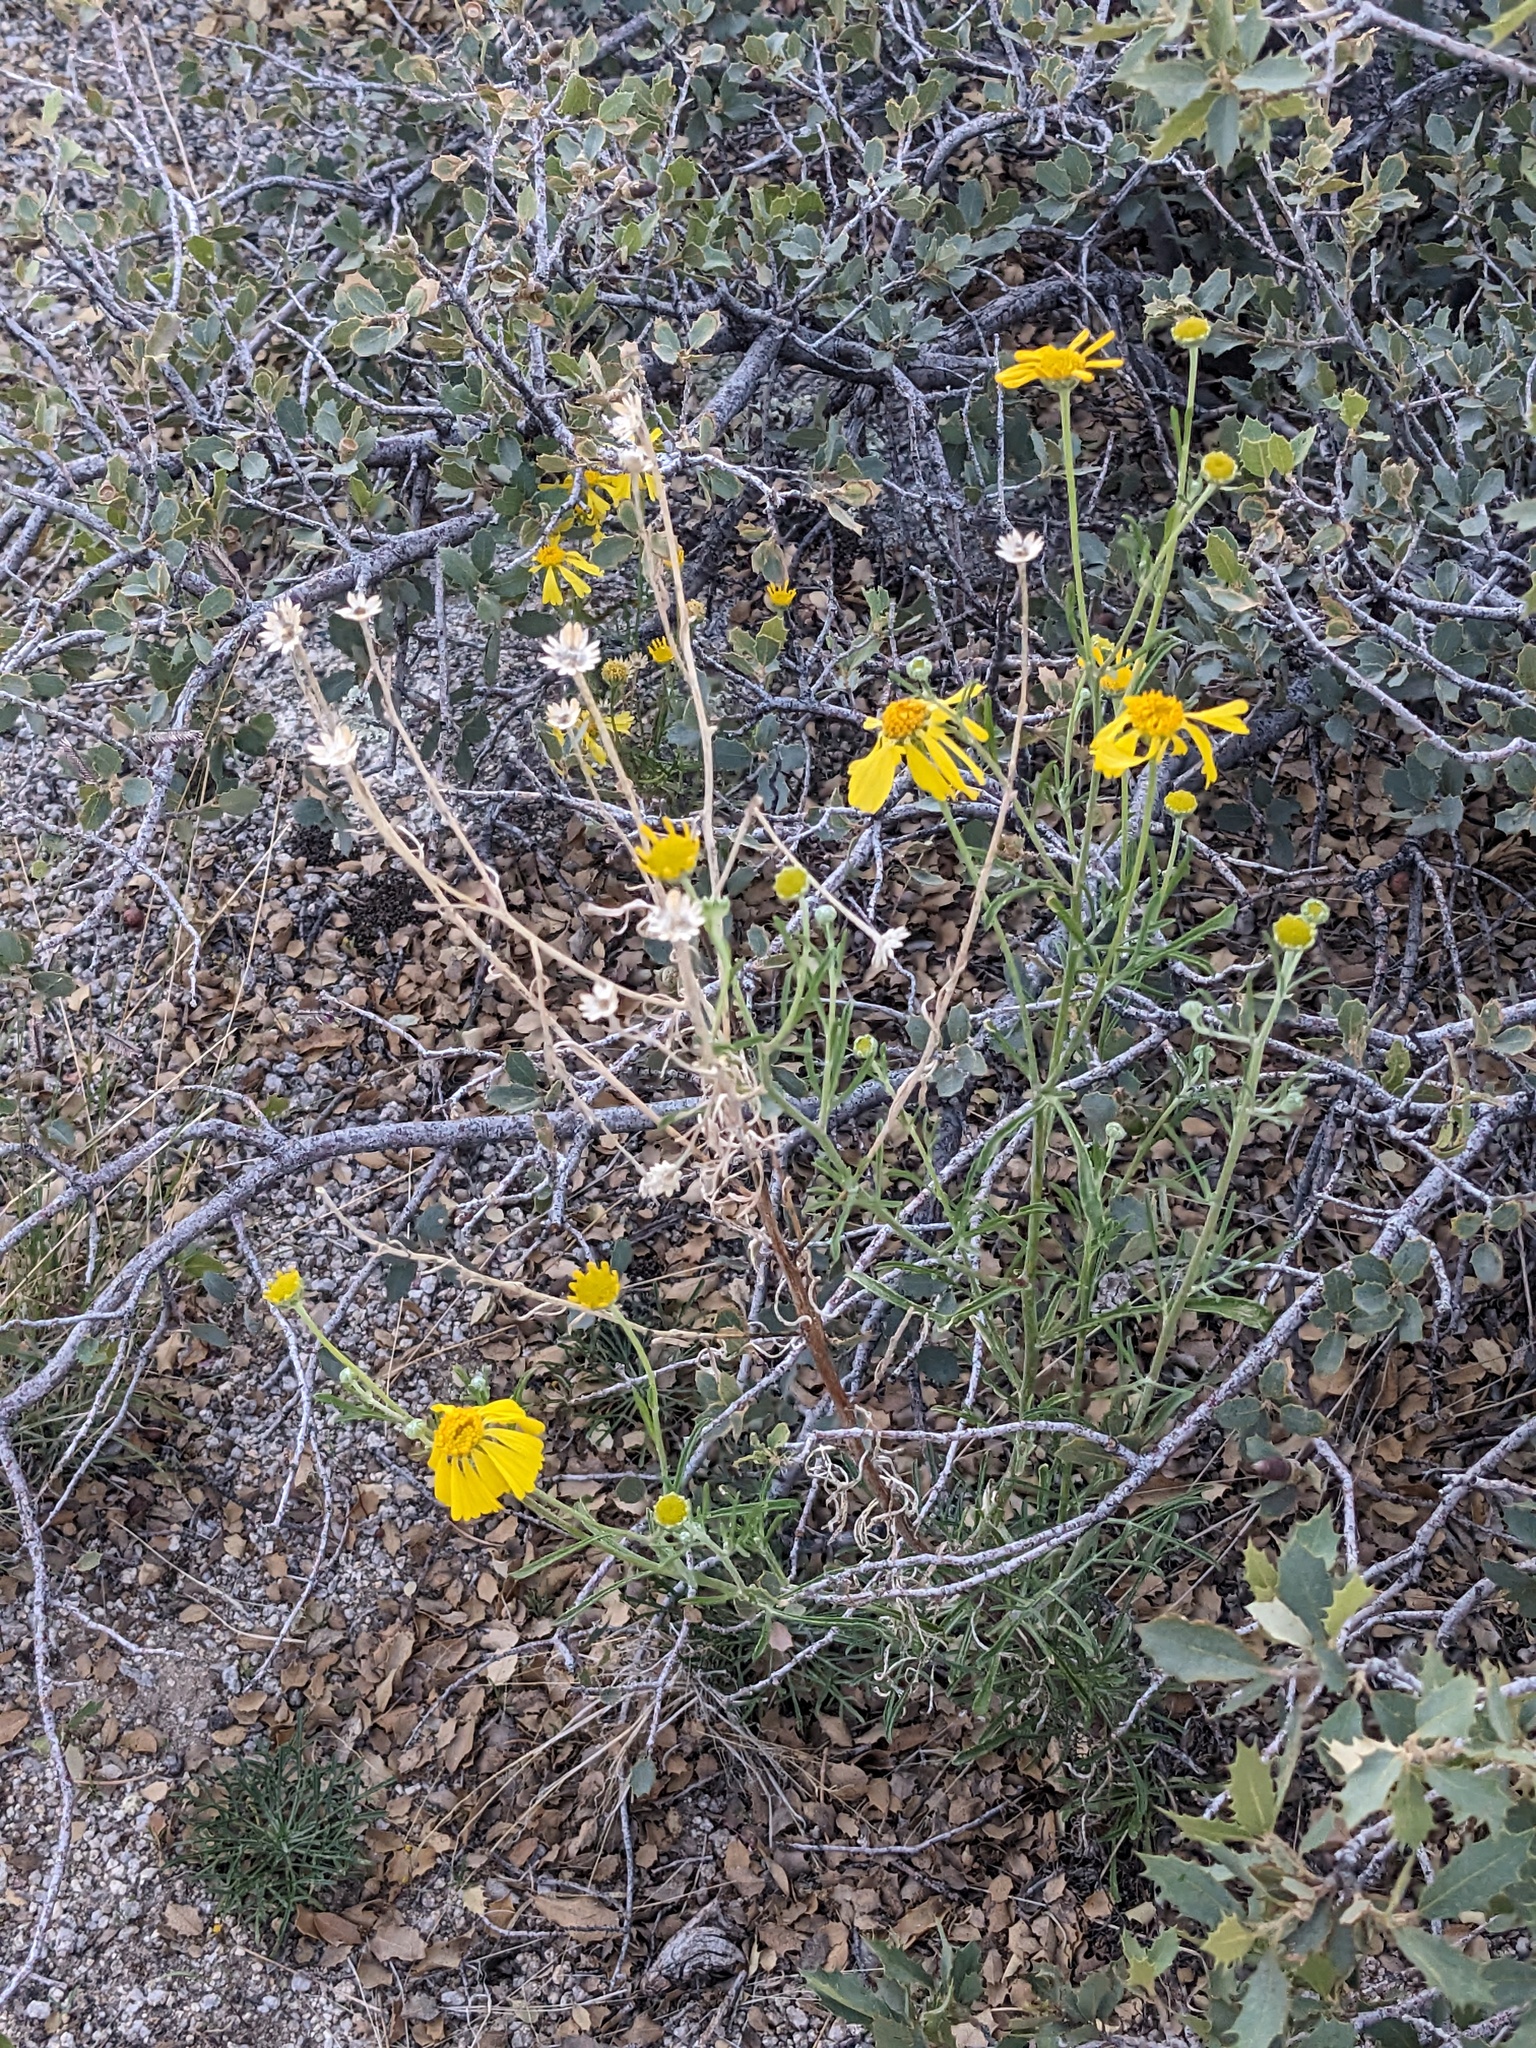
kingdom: Plantae
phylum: Tracheophyta
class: Magnoliopsida
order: Asterales
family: Asteraceae
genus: Hymenoxys
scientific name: Hymenoxys cooperi
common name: Cooper's bitterweed
